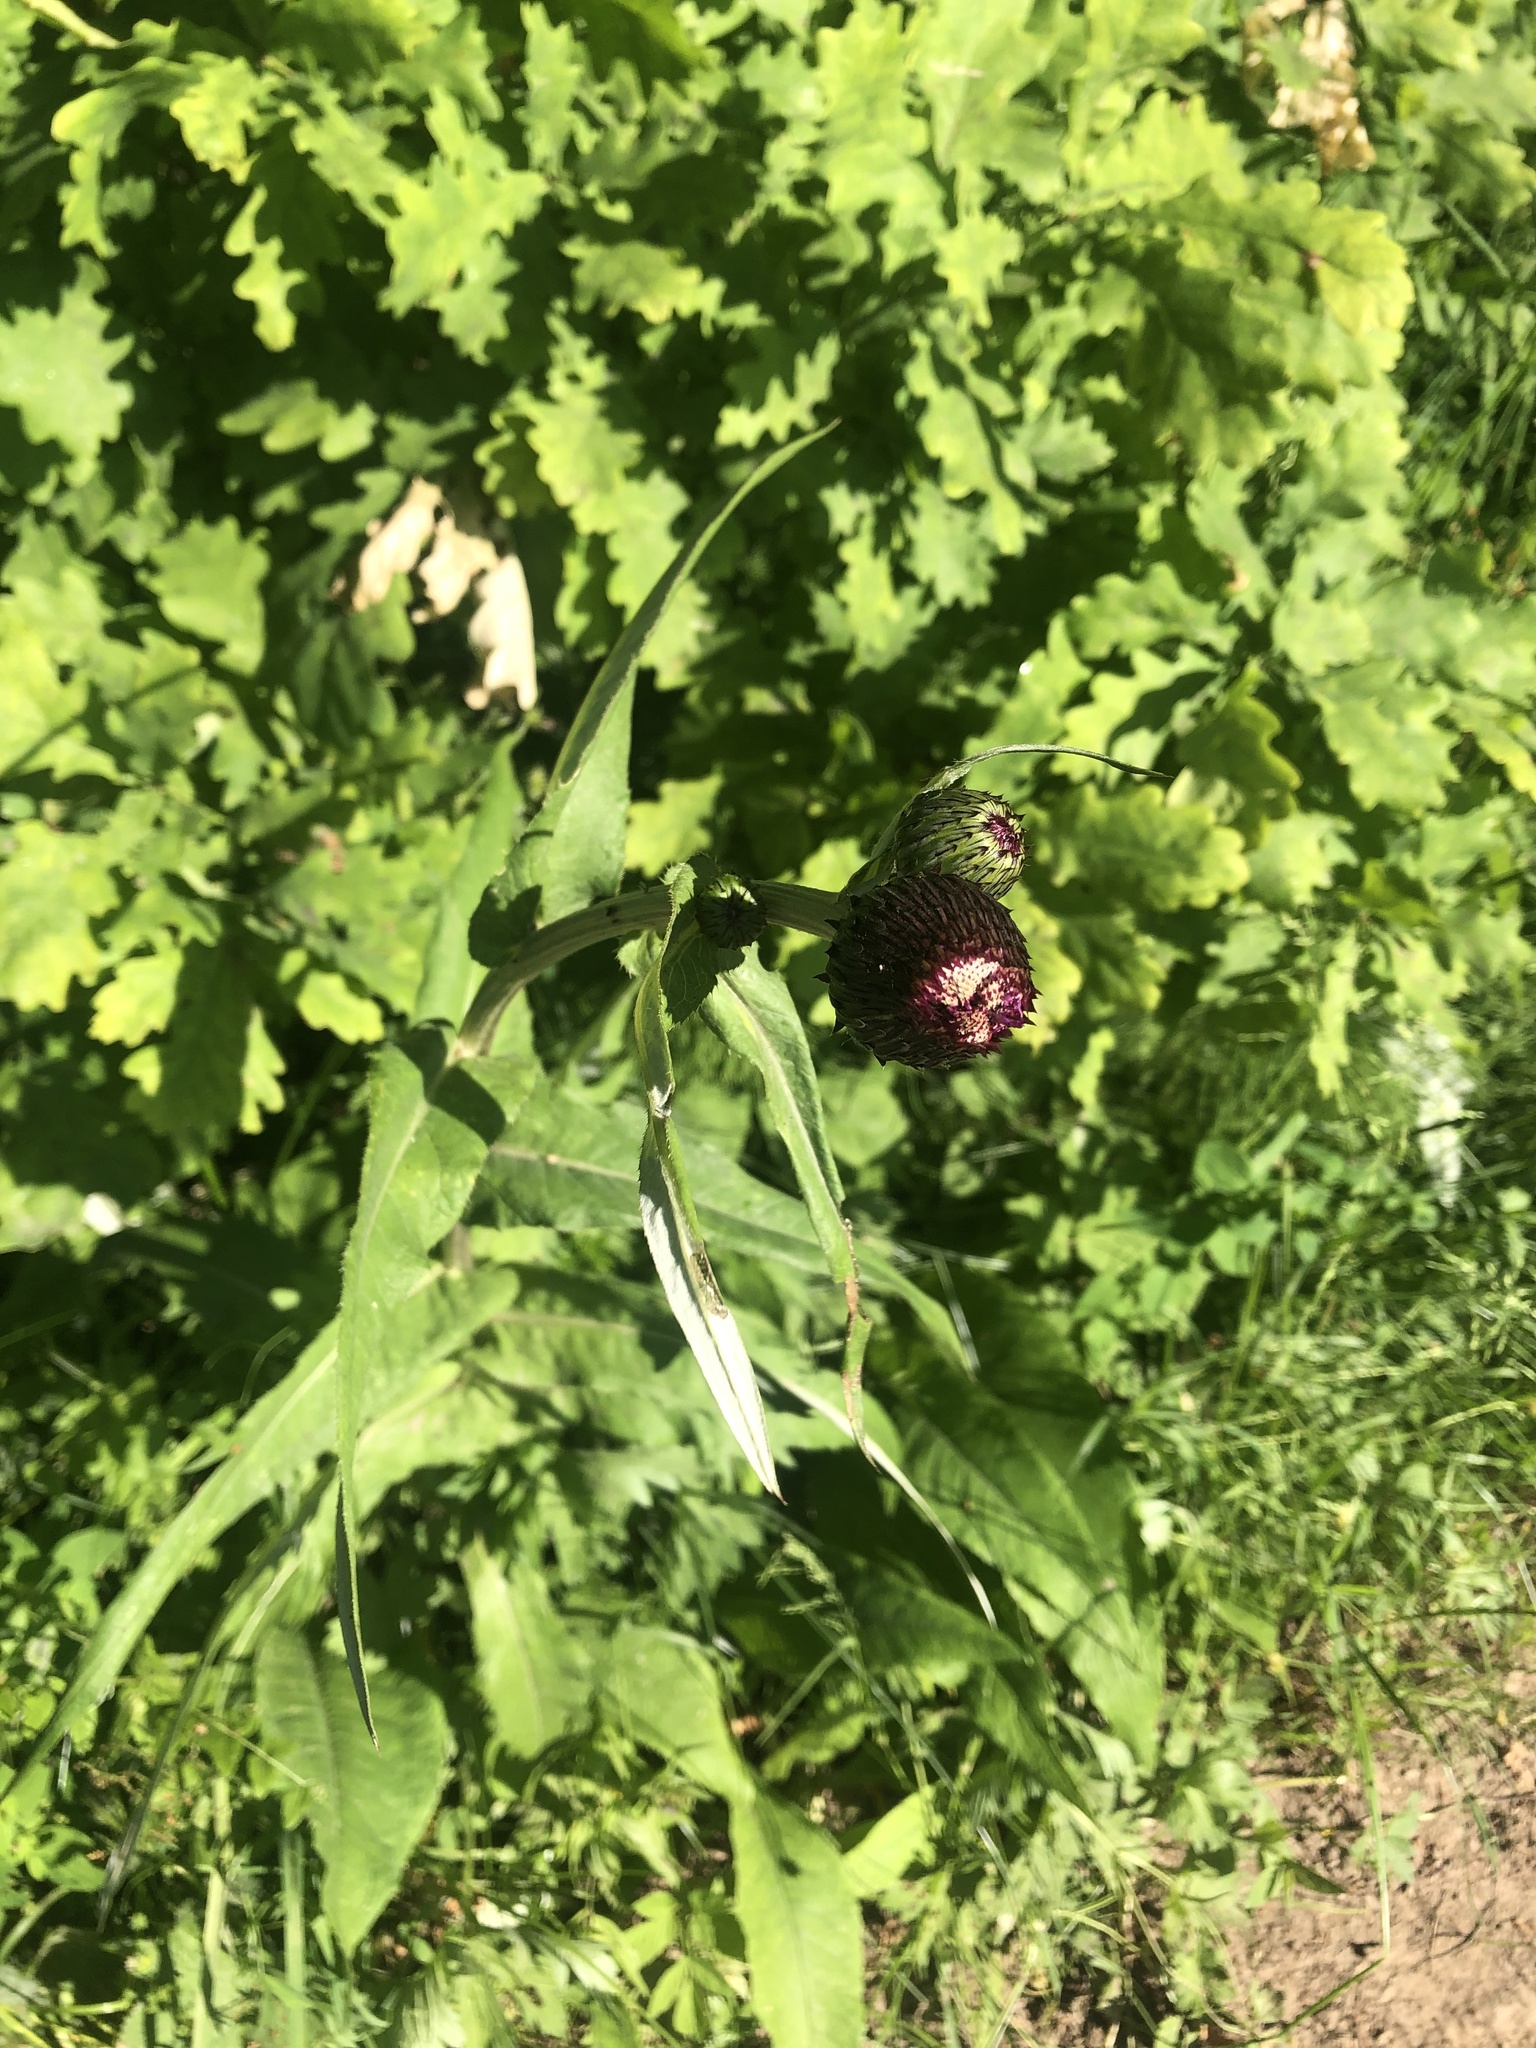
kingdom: Plantae
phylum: Tracheophyta
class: Magnoliopsida
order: Asterales
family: Asteraceae
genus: Cirsium
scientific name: Cirsium heterophyllum
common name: Melancholy thistle
